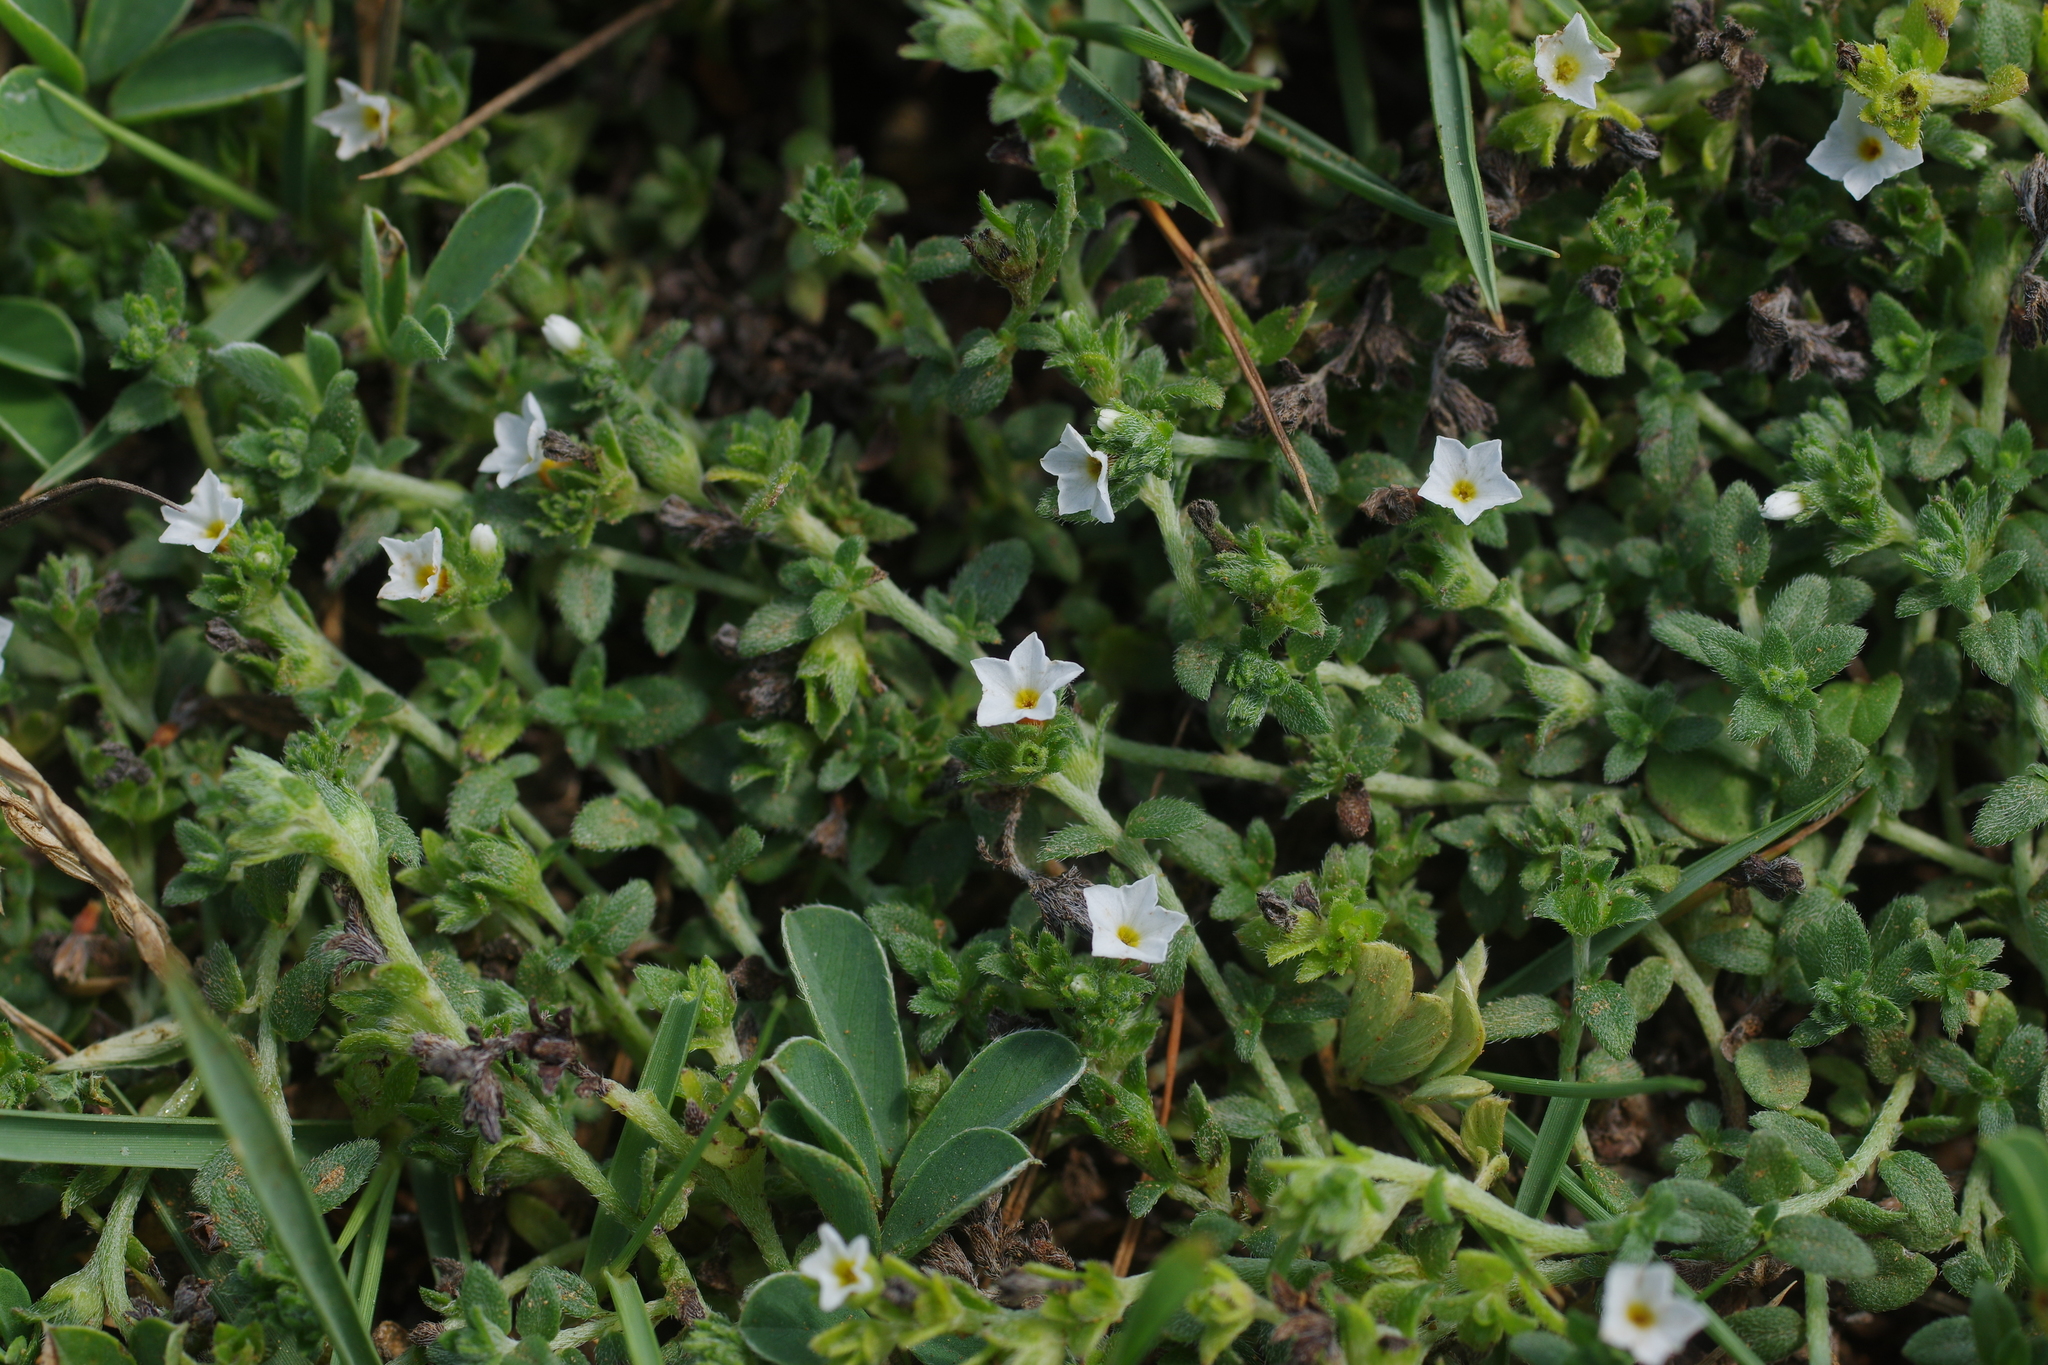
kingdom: Plantae
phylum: Tracheophyta
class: Magnoliopsida
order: Boraginales
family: Heliotropiaceae
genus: Heliotropium
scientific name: Heliotropium formosanum
